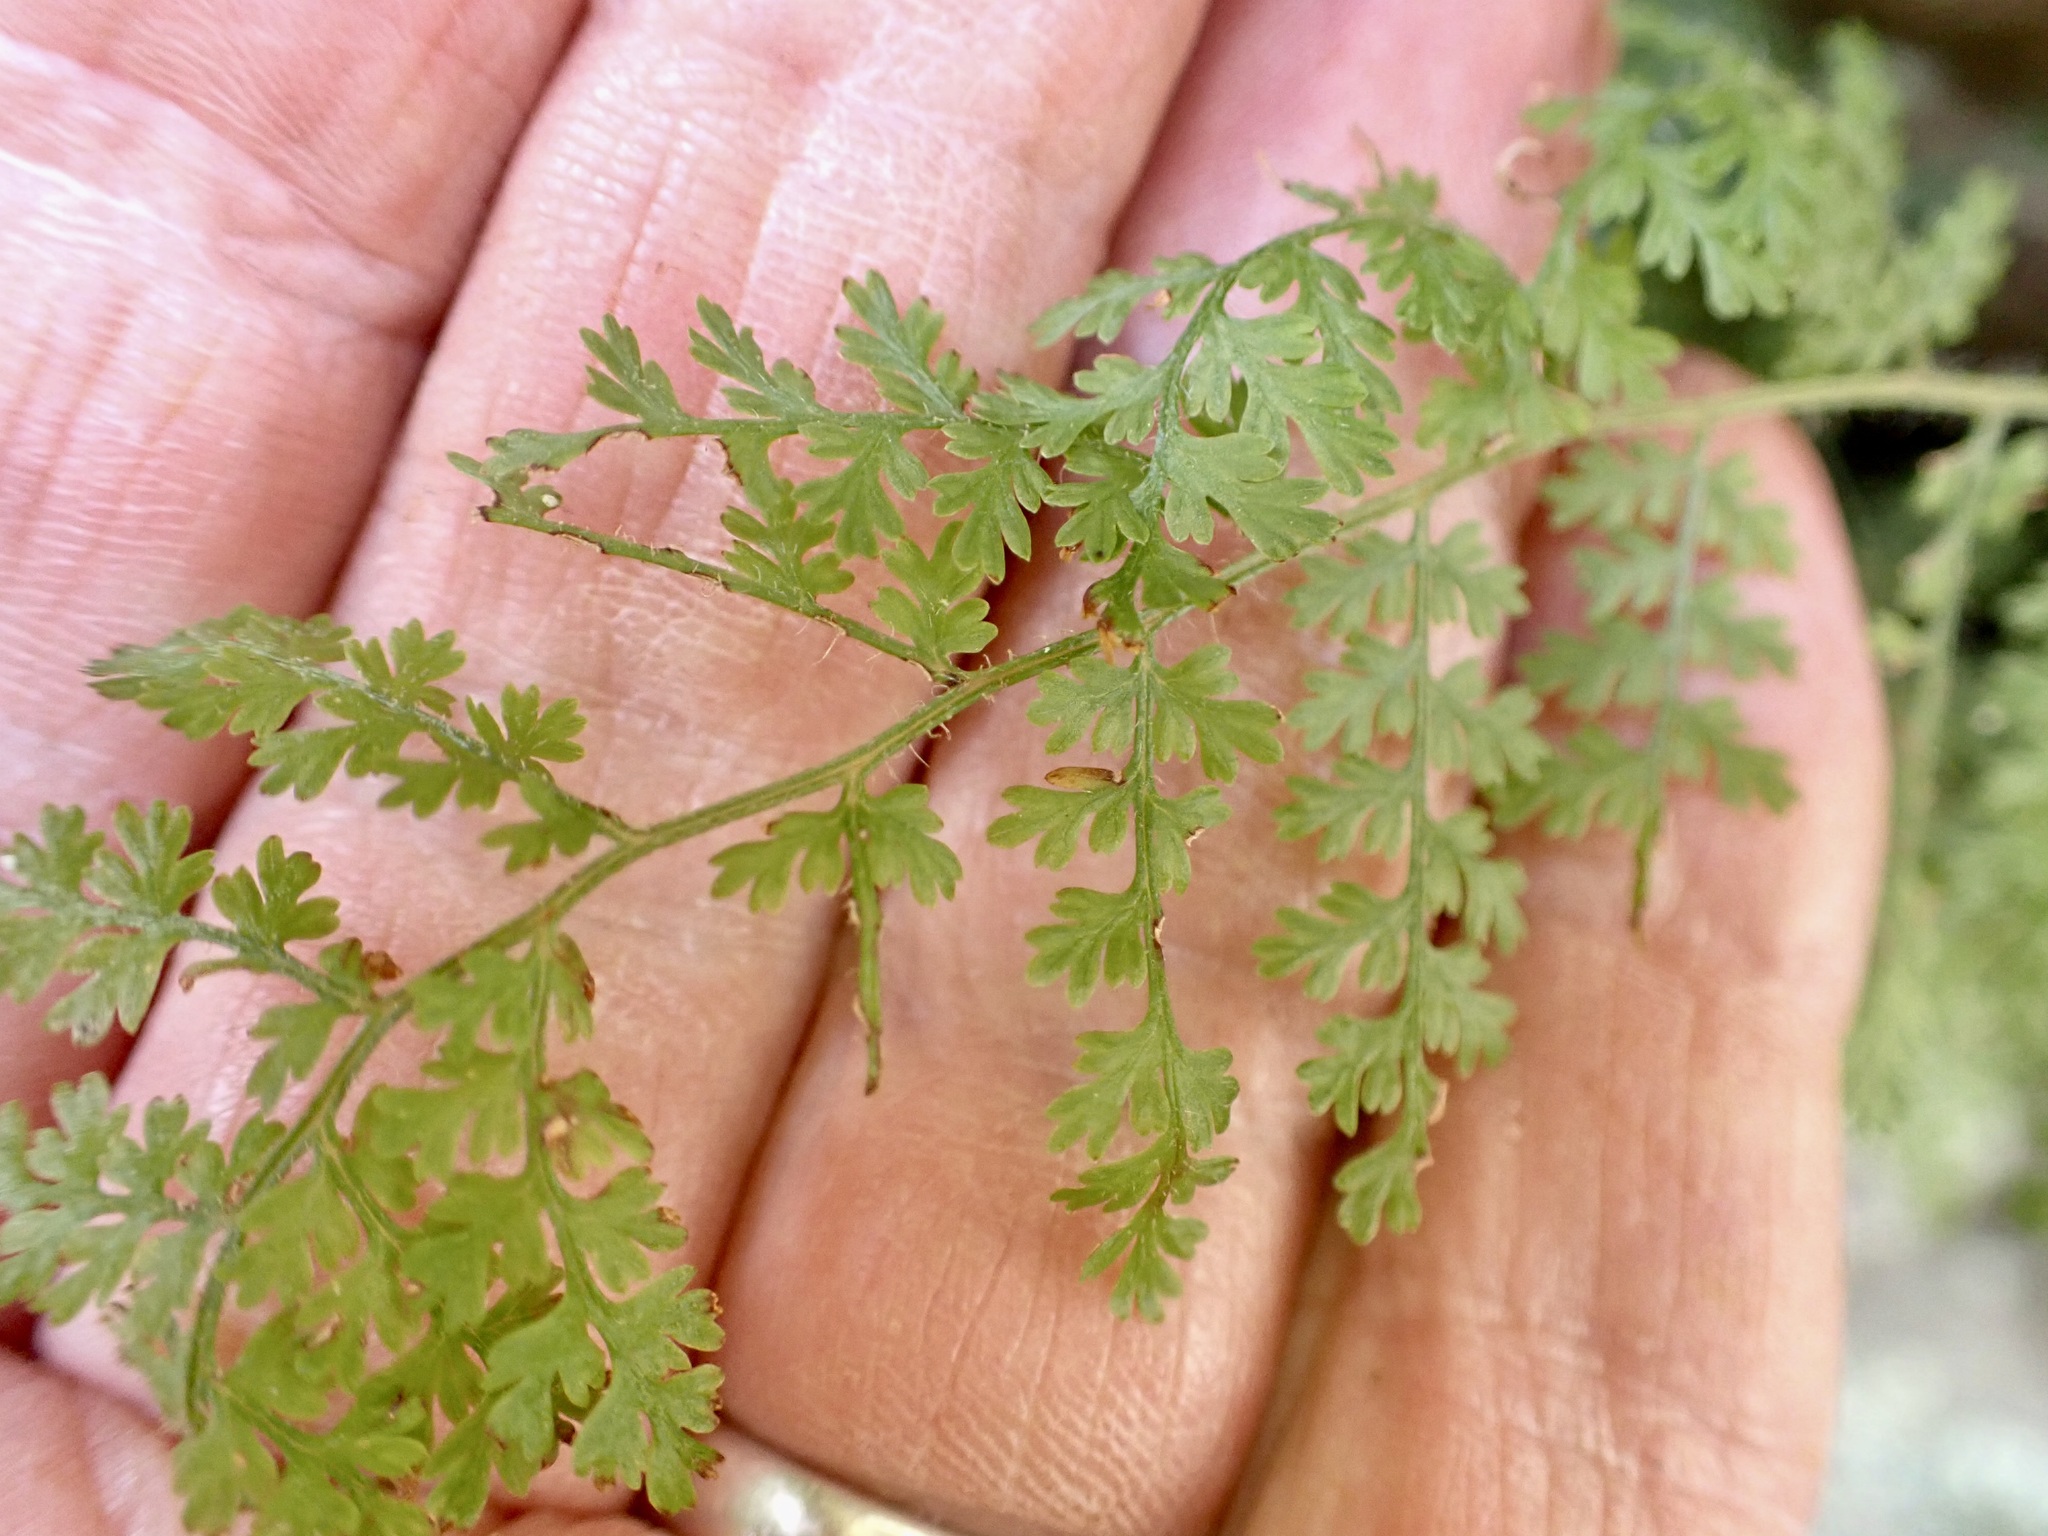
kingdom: Plantae
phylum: Tracheophyta
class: Polypodiopsida
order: Polypodiales
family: Dennstaedtiaceae
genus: Hypolepis
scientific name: Hypolepis millefolium
